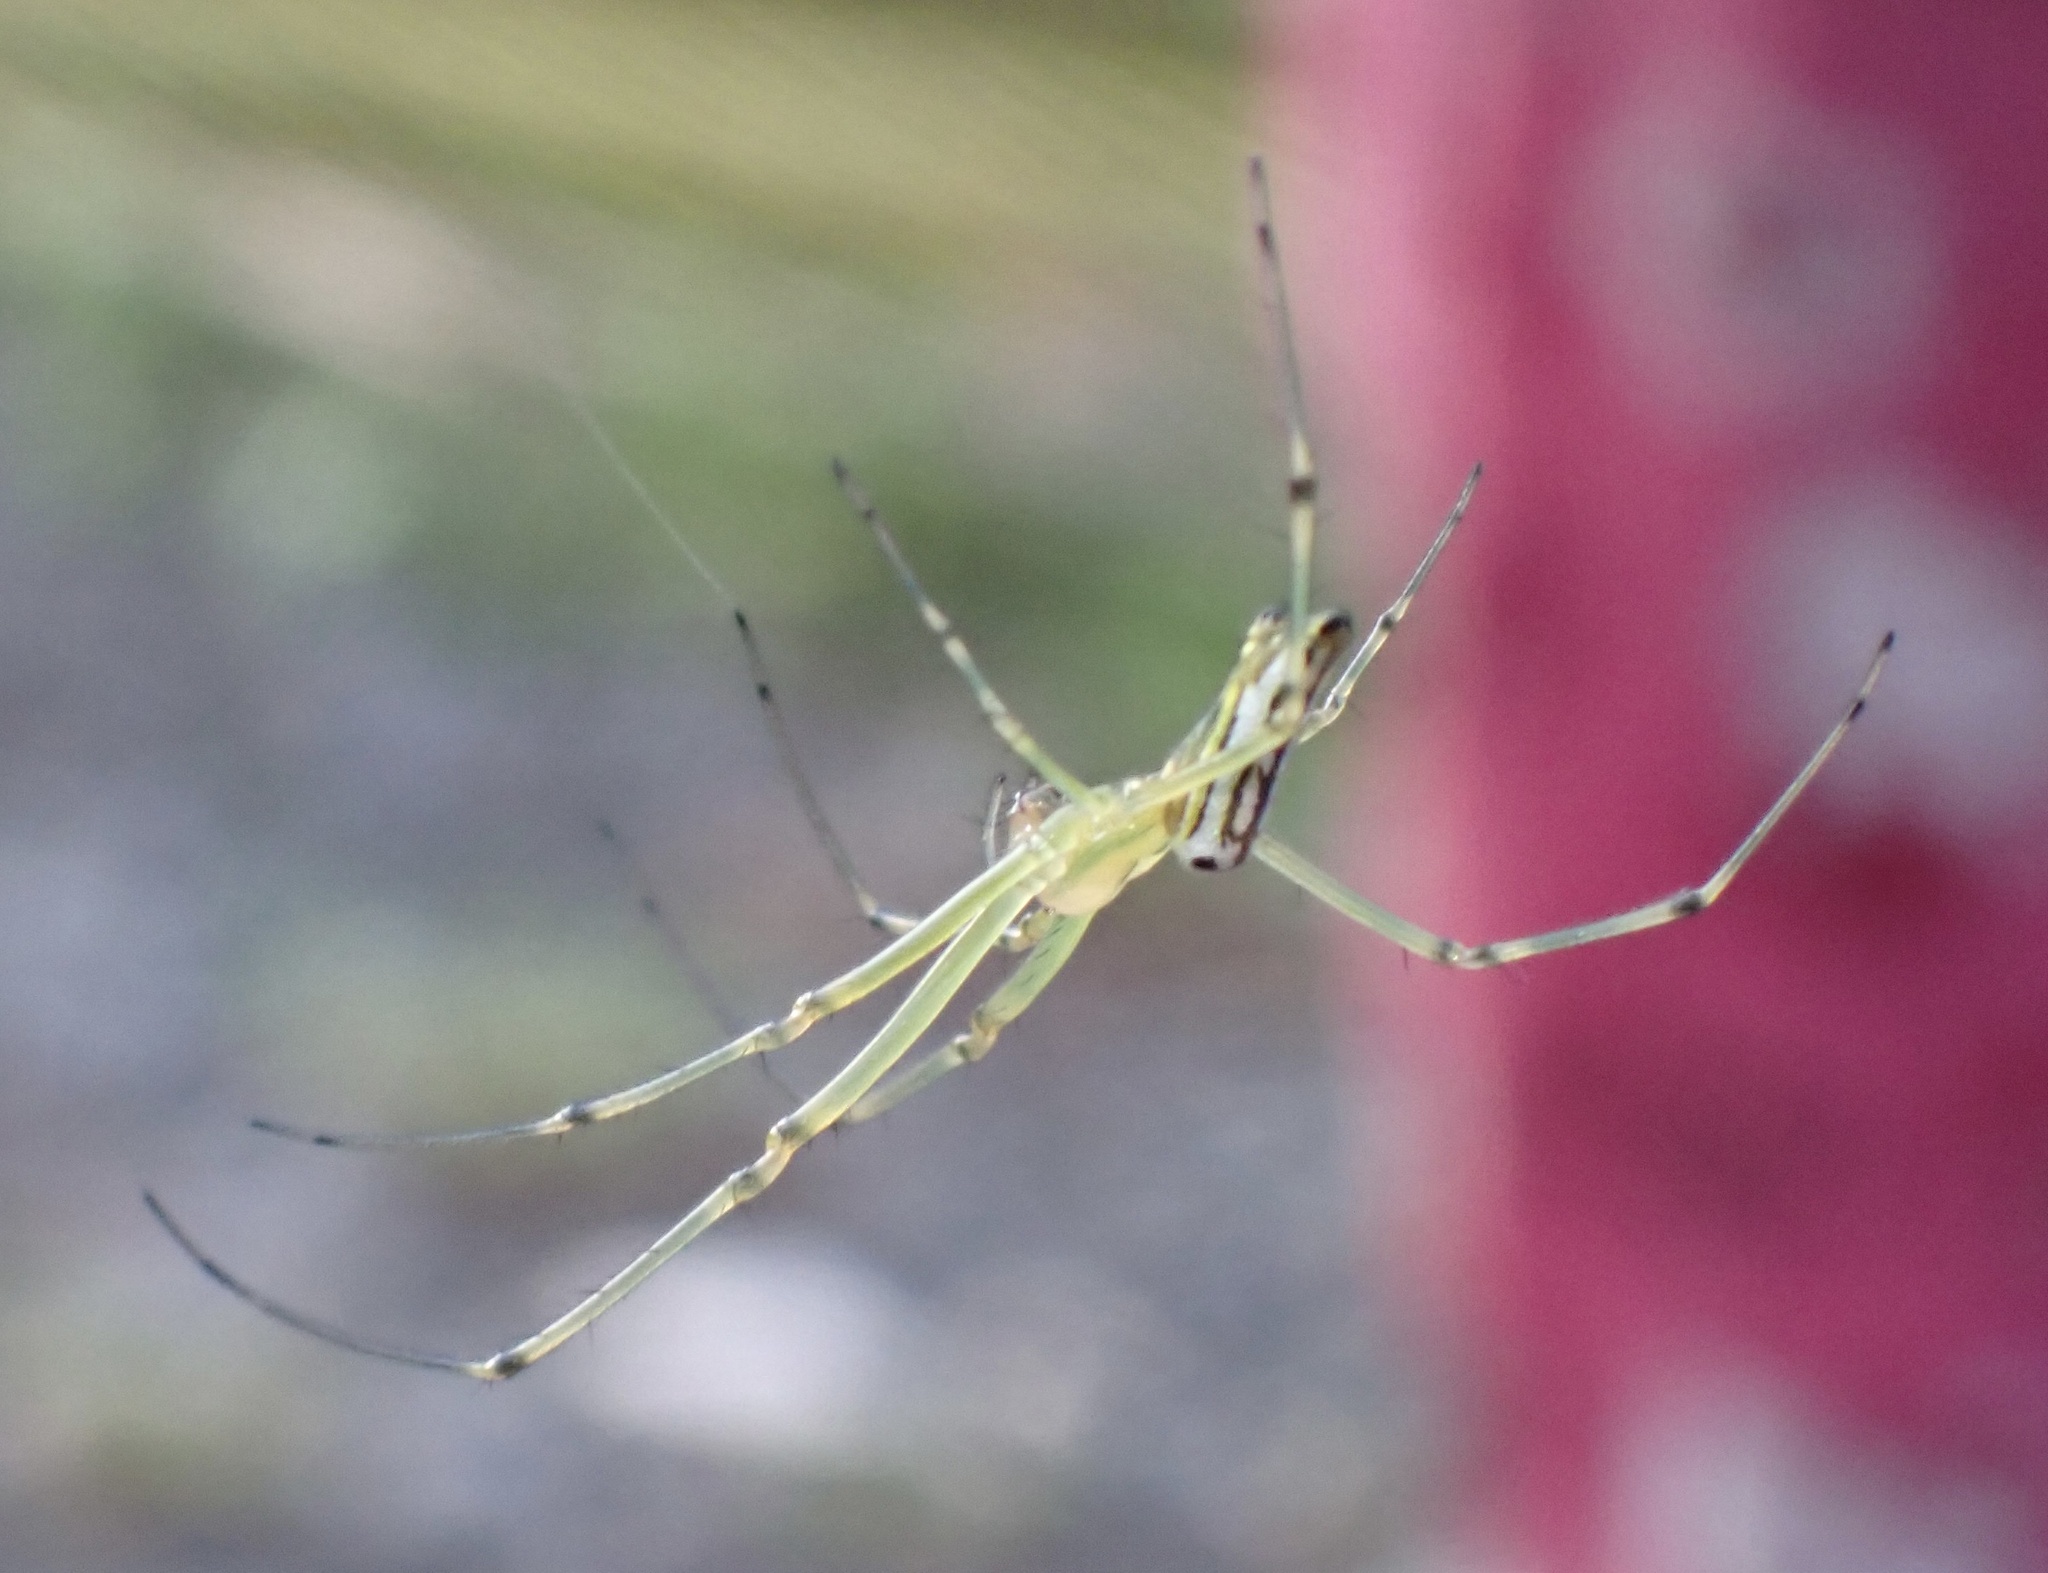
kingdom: Animalia
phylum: Arthropoda
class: Arachnida
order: Araneae
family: Tetragnathidae
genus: Leucauge
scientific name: Leucauge decorata
